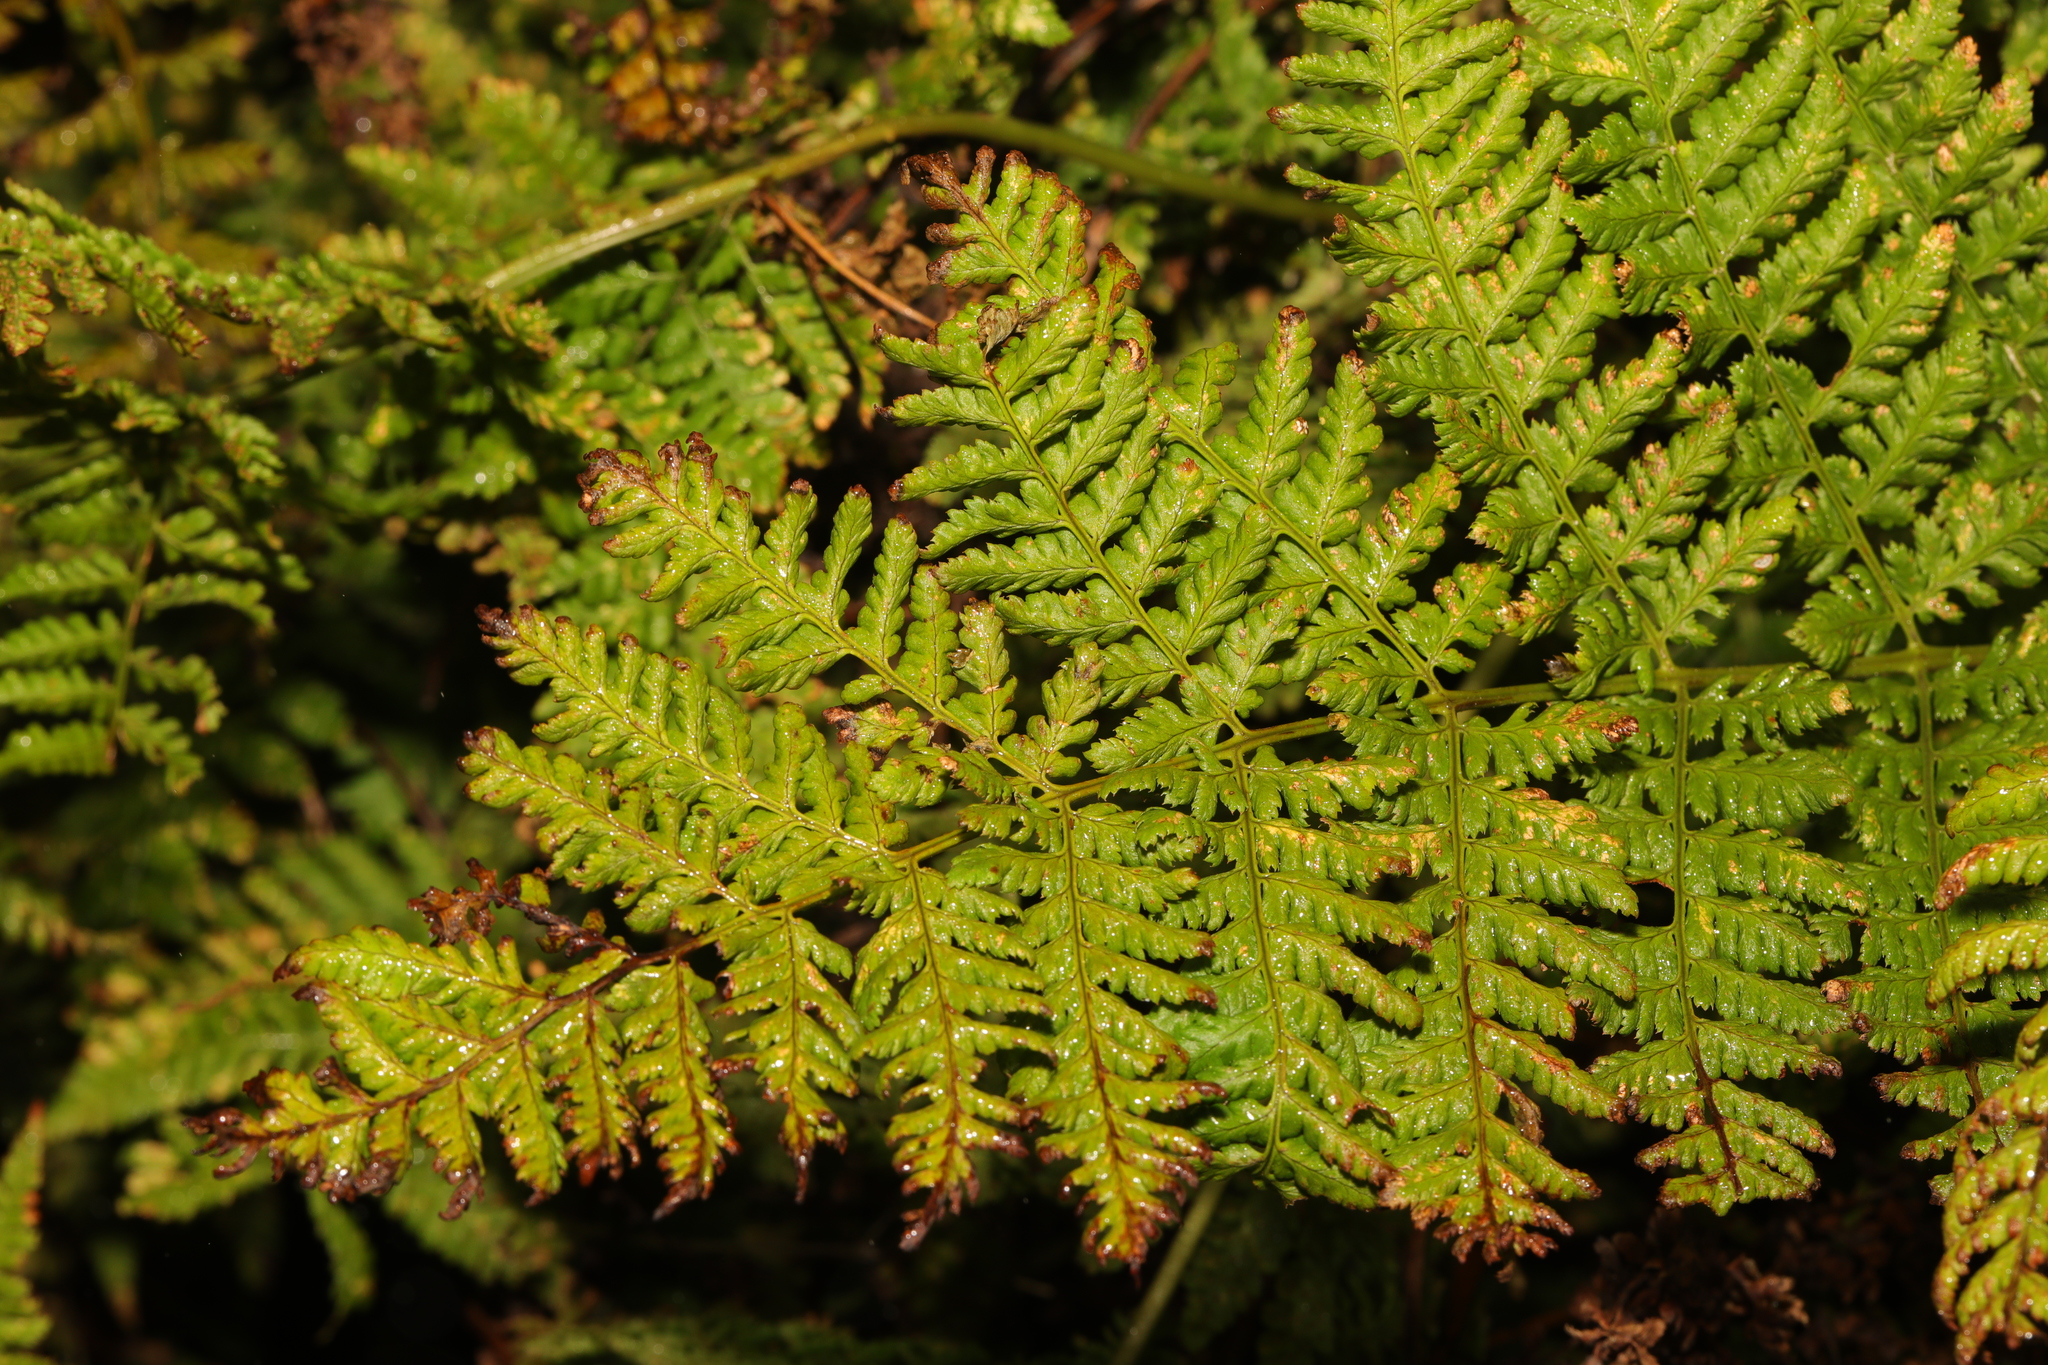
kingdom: Plantae
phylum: Tracheophyta
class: Polypodiopsida
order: Polypodiales
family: Dryopteridaceae
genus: Dryopteris
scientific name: Dryopteris dilatata
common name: Broad buckler-fern
